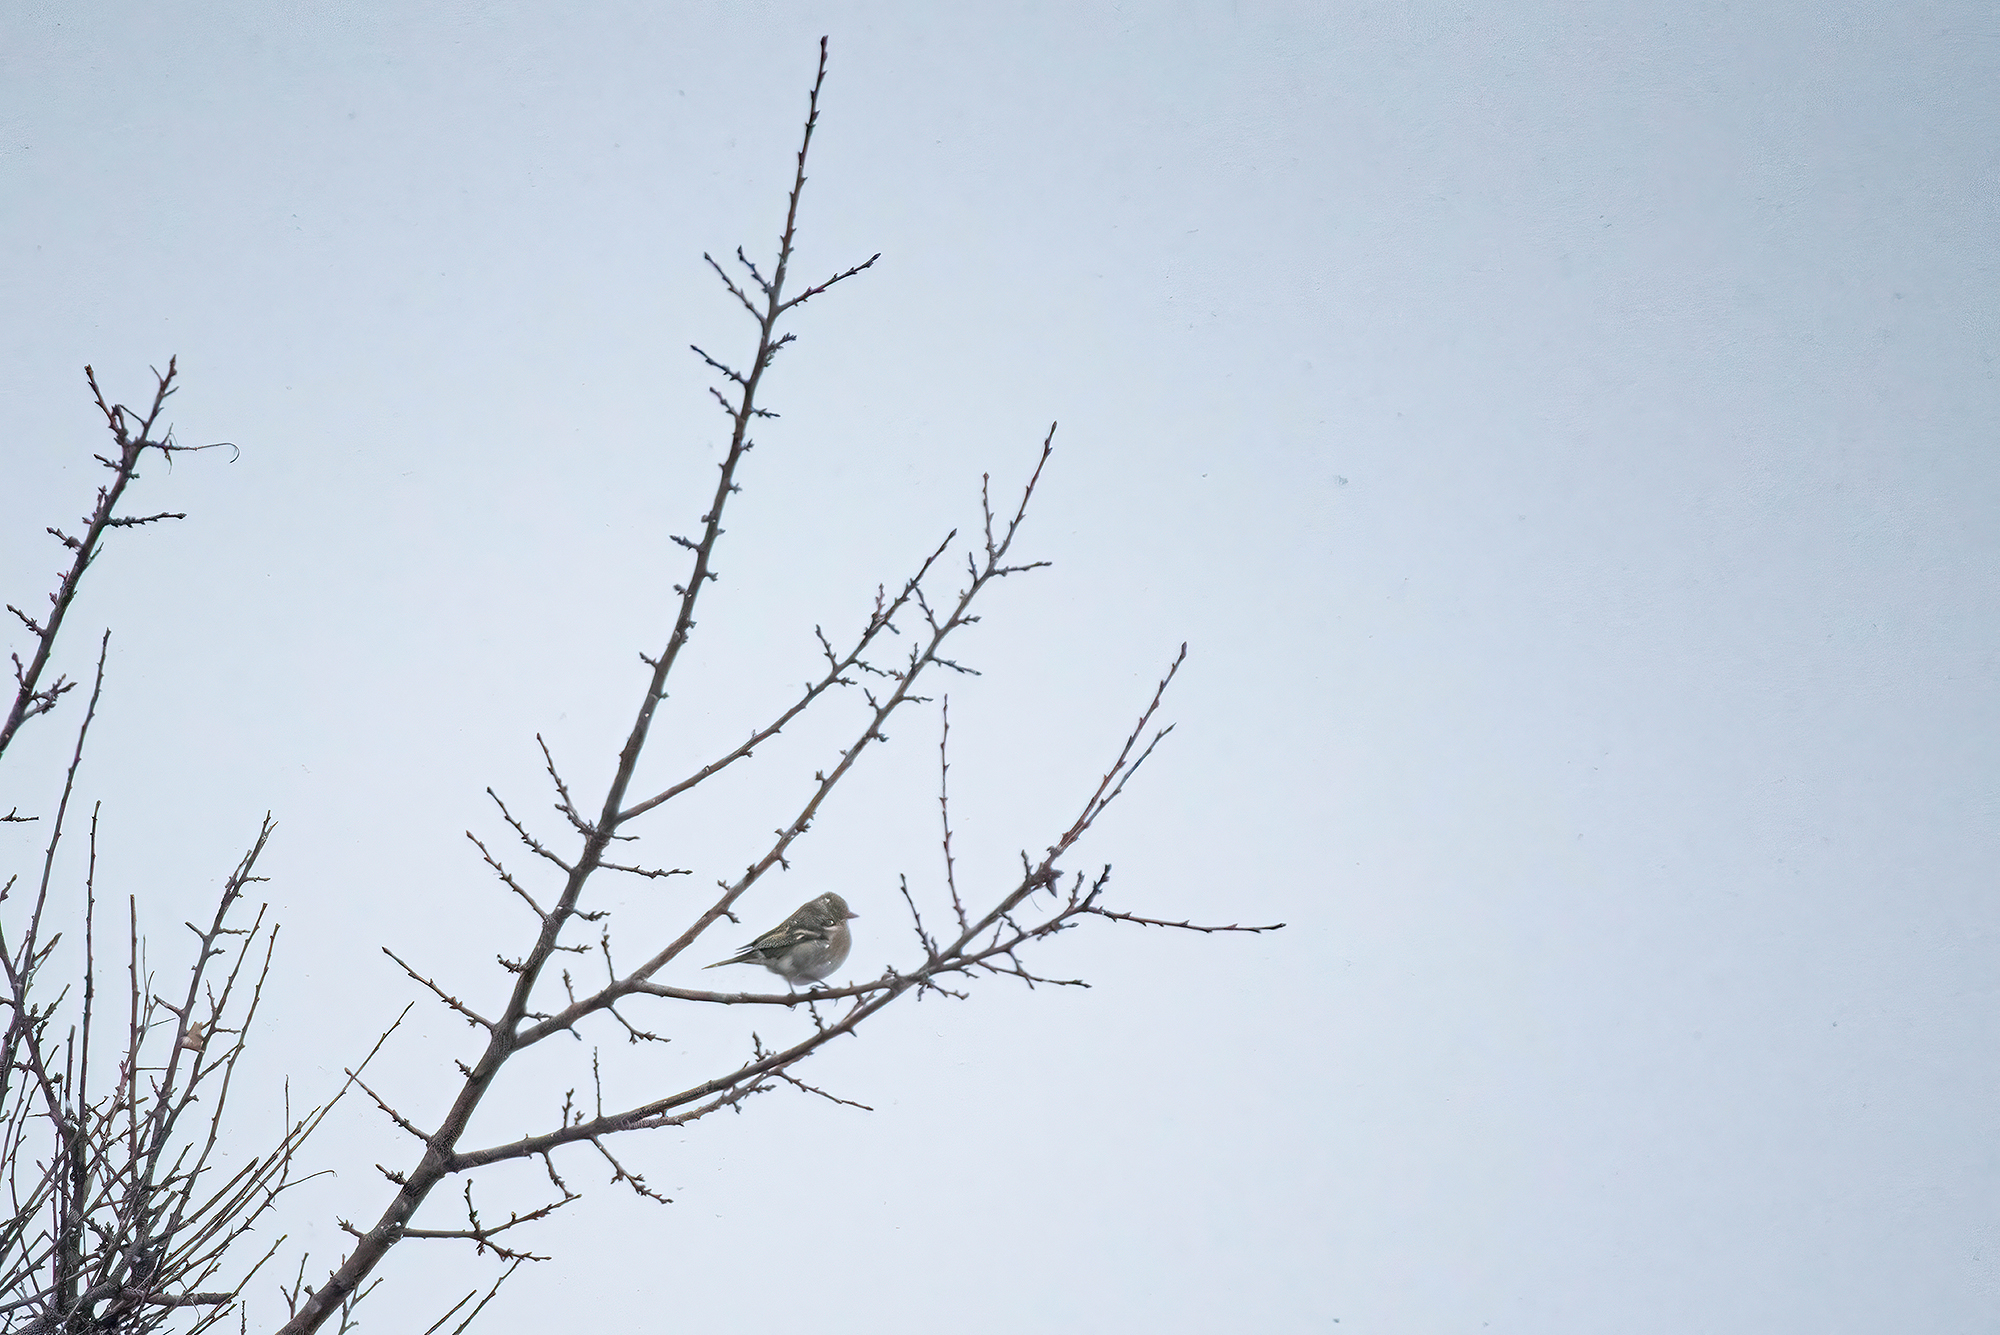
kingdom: Animalia
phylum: Chordata
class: Aves
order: Passeriformes
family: Fringillidae
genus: Fringilla
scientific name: Fringilla coelebs
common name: Common chaffinch
